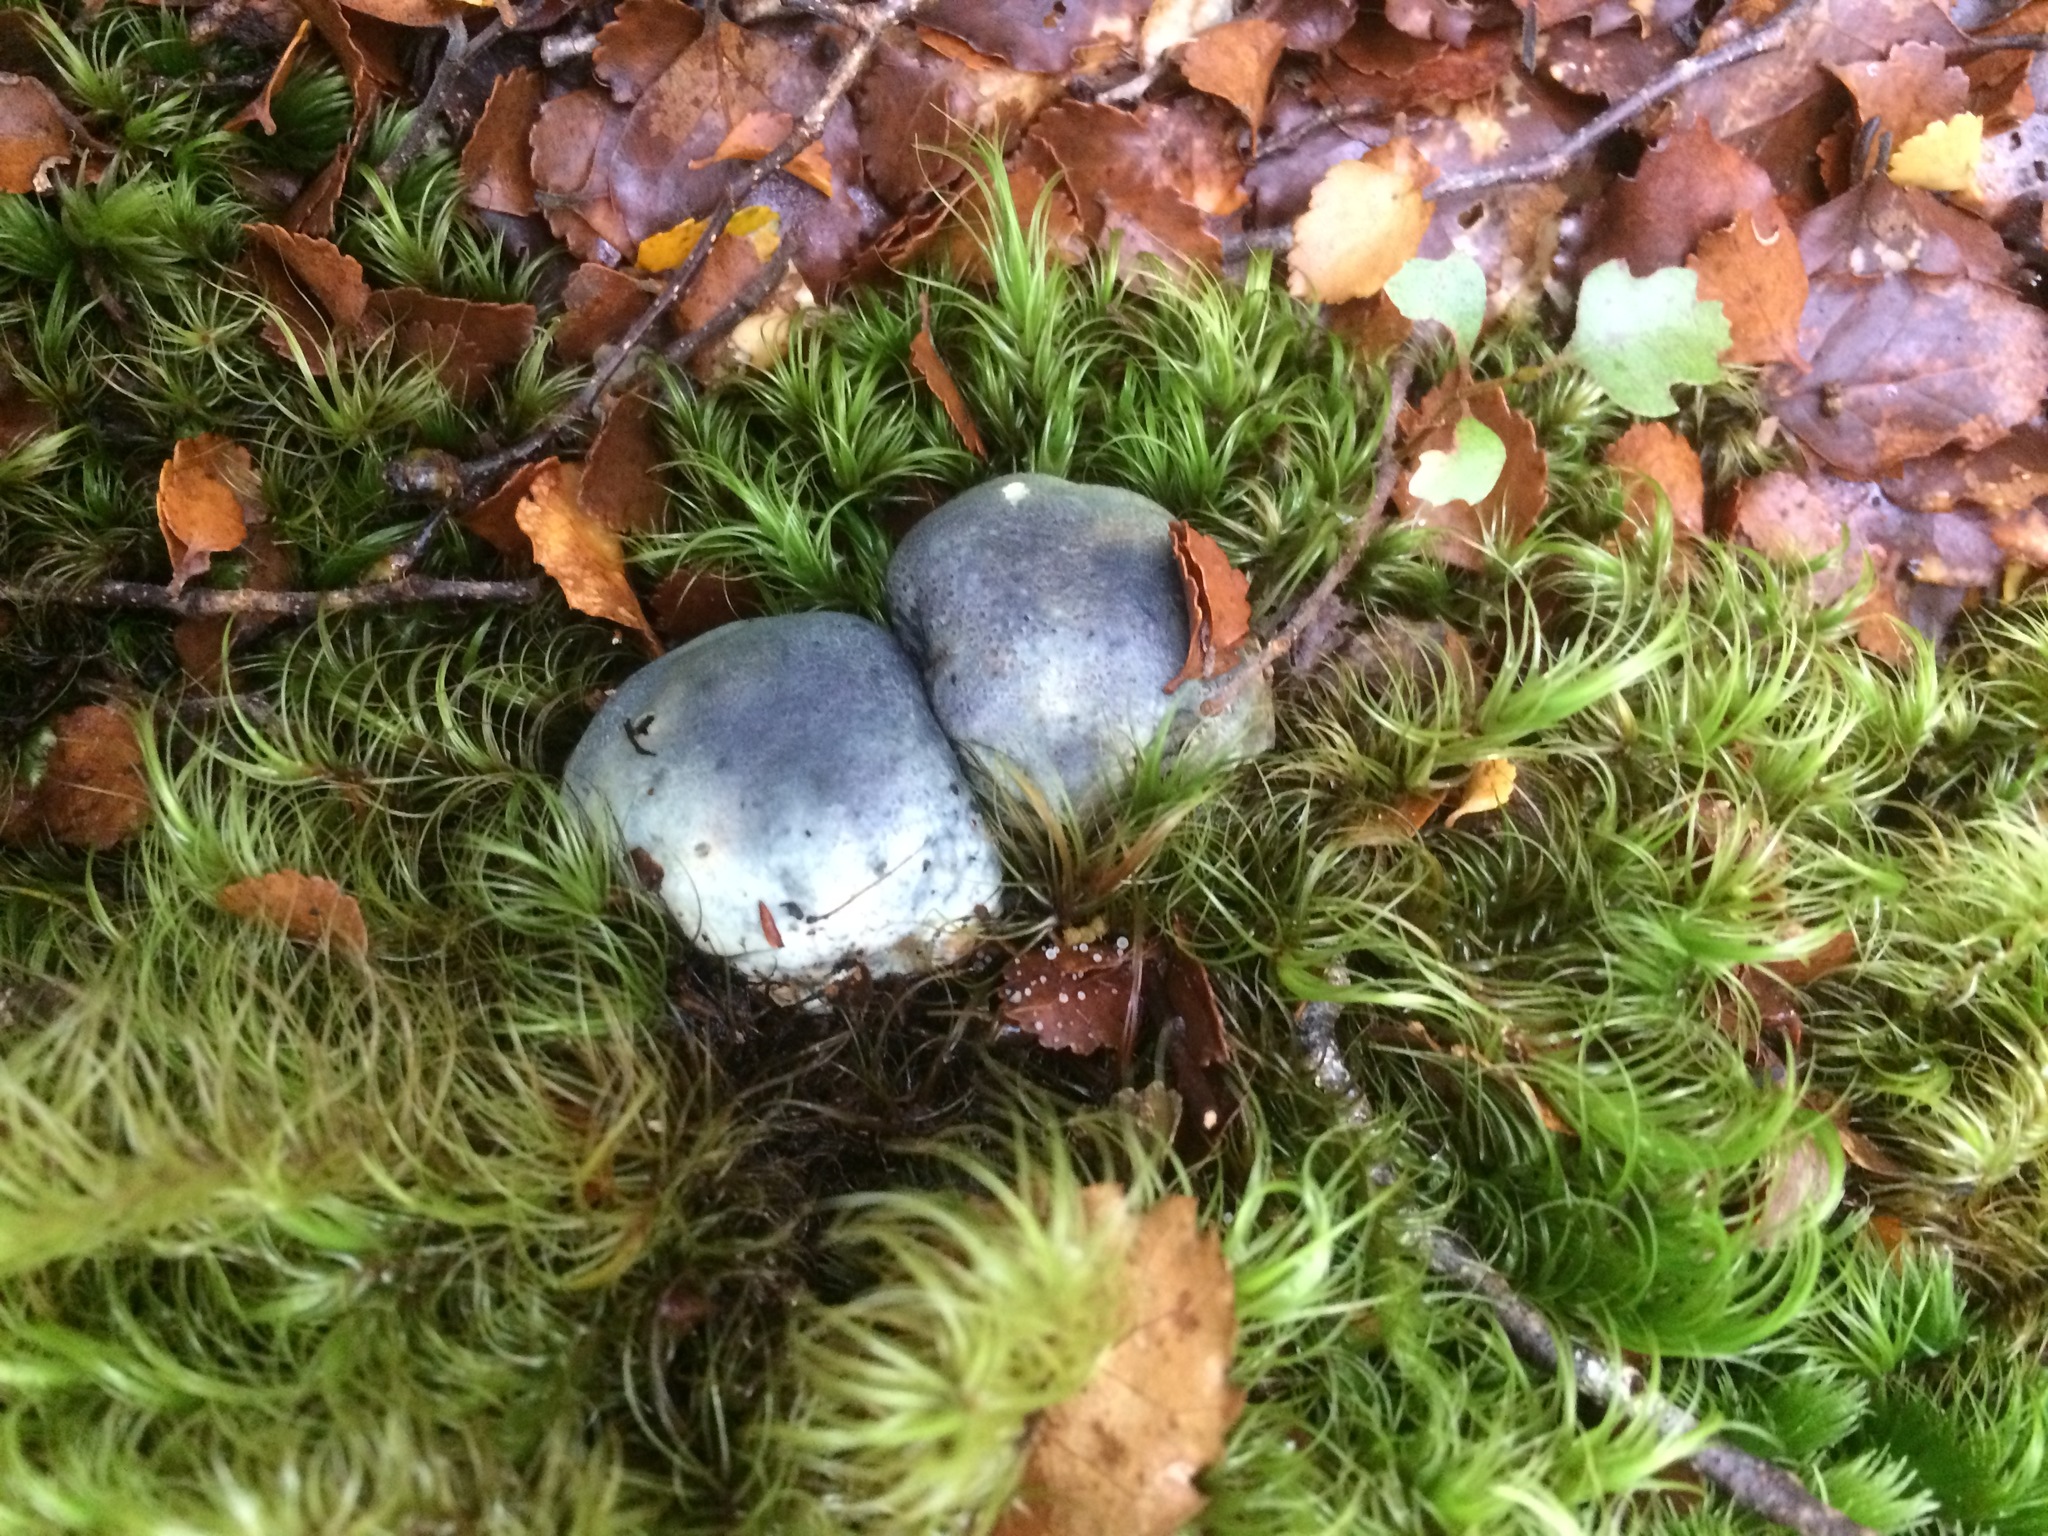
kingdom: Fungi
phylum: Basidiomycota
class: Agaricomycetes
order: Boletales
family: Boletaceae
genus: Leccinum
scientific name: Leccinum pachyderme
